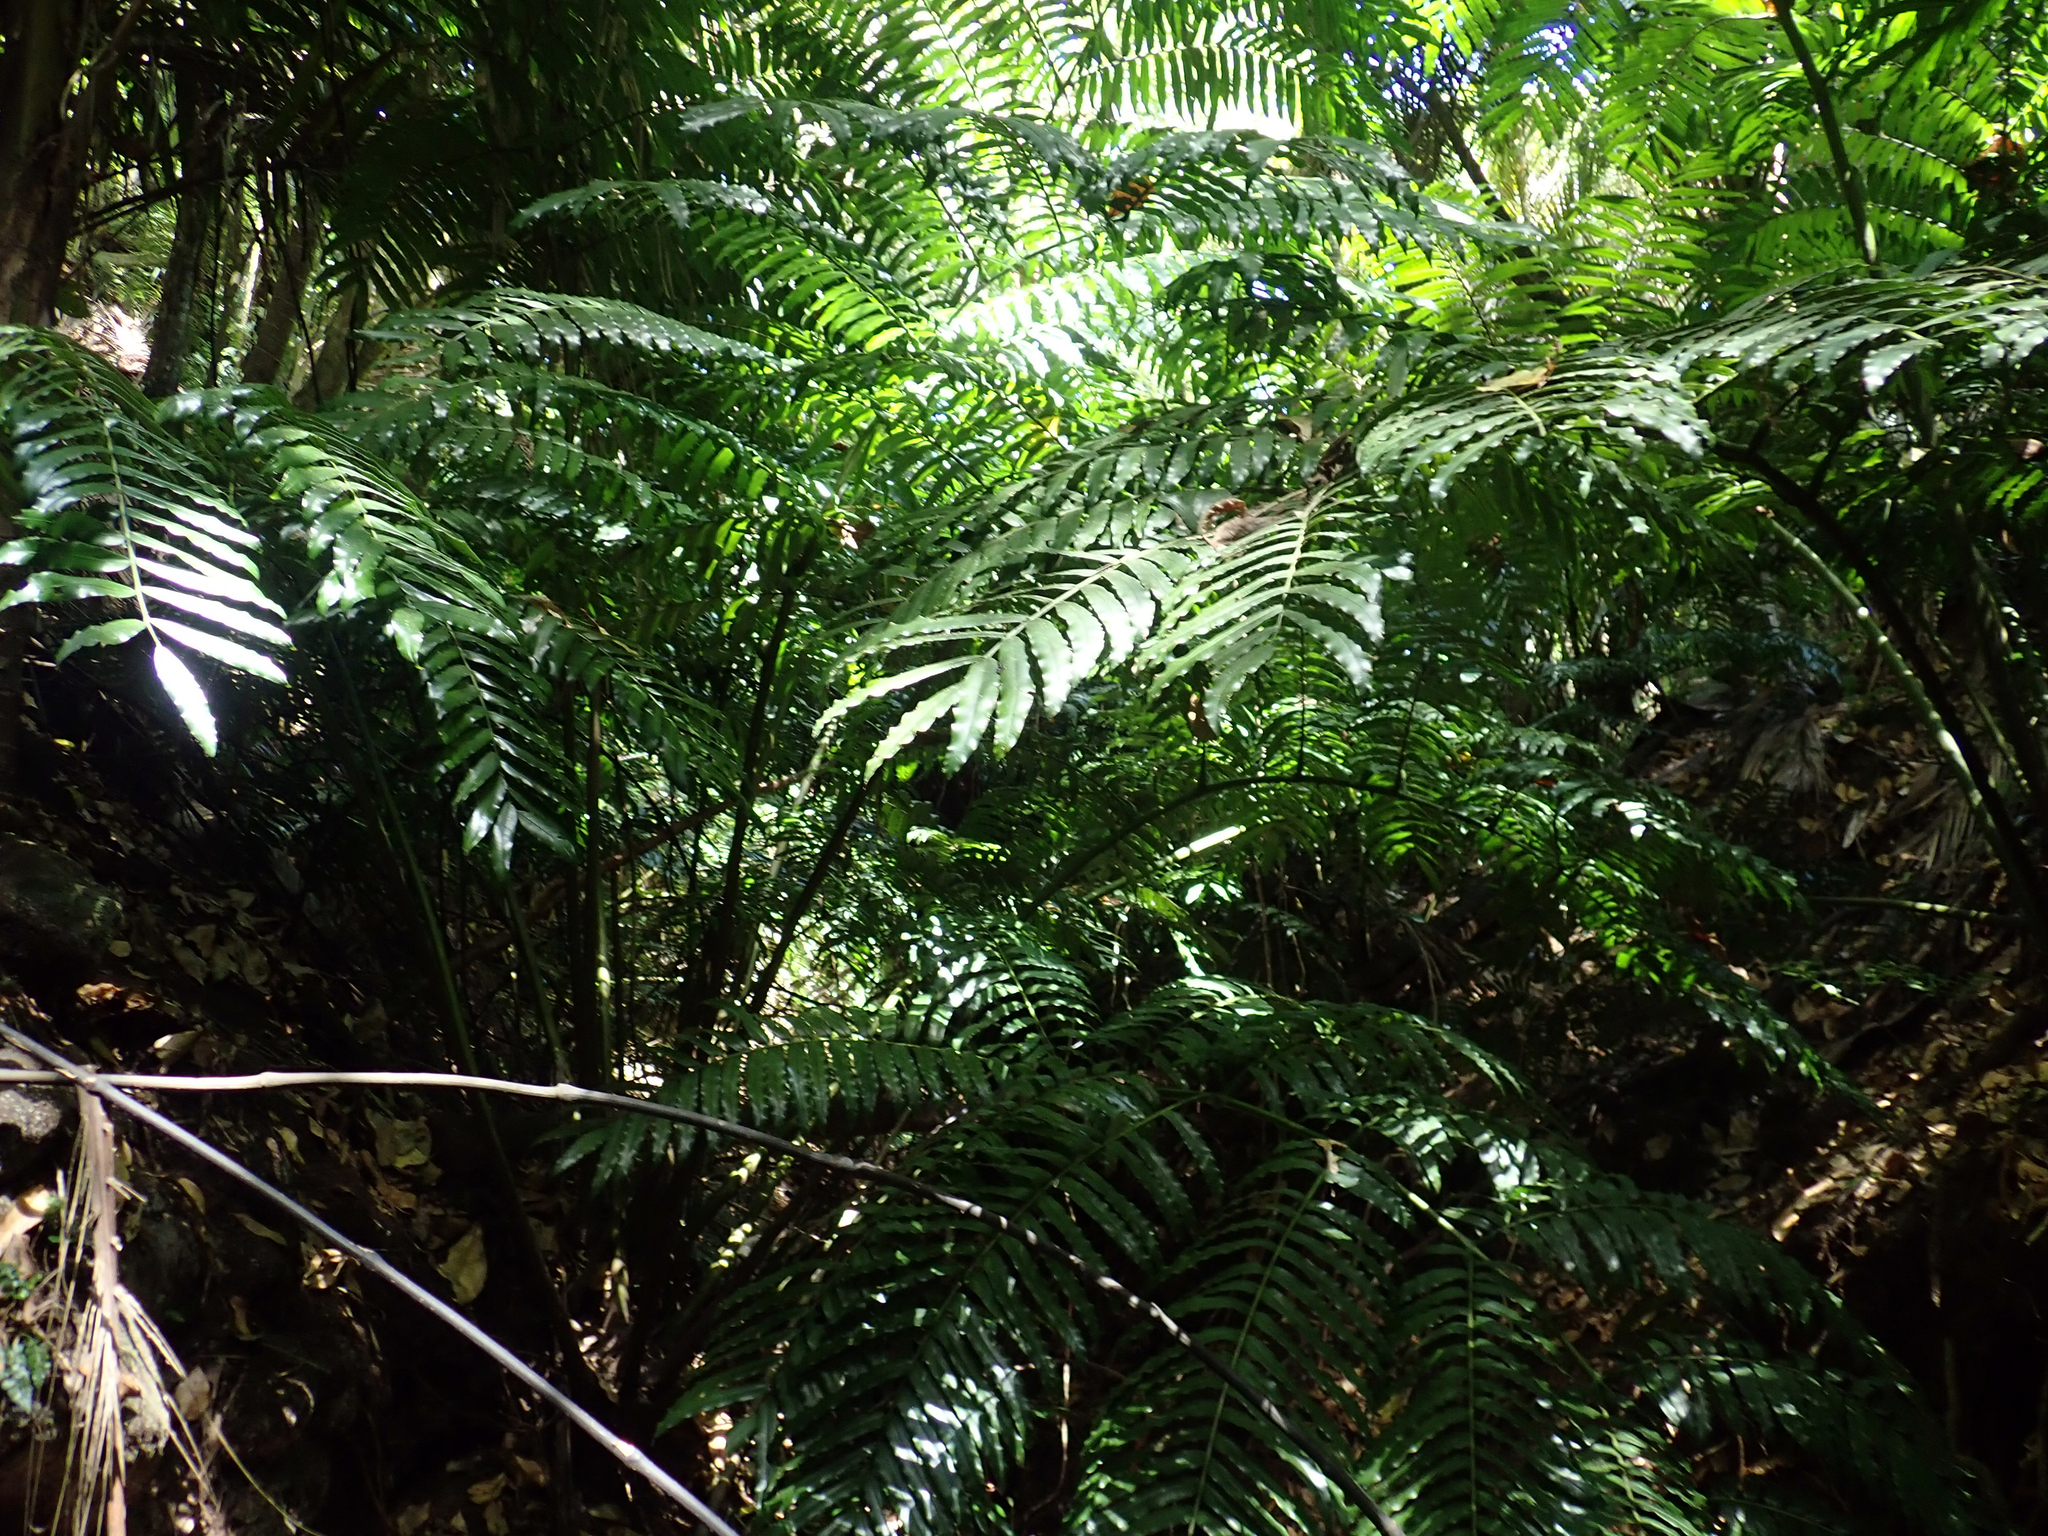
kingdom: Plantae
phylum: Tracheophyta
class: Polypodiopsida
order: Marattiales
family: Marattiaceae
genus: Ptisana
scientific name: Ptisana salicina
